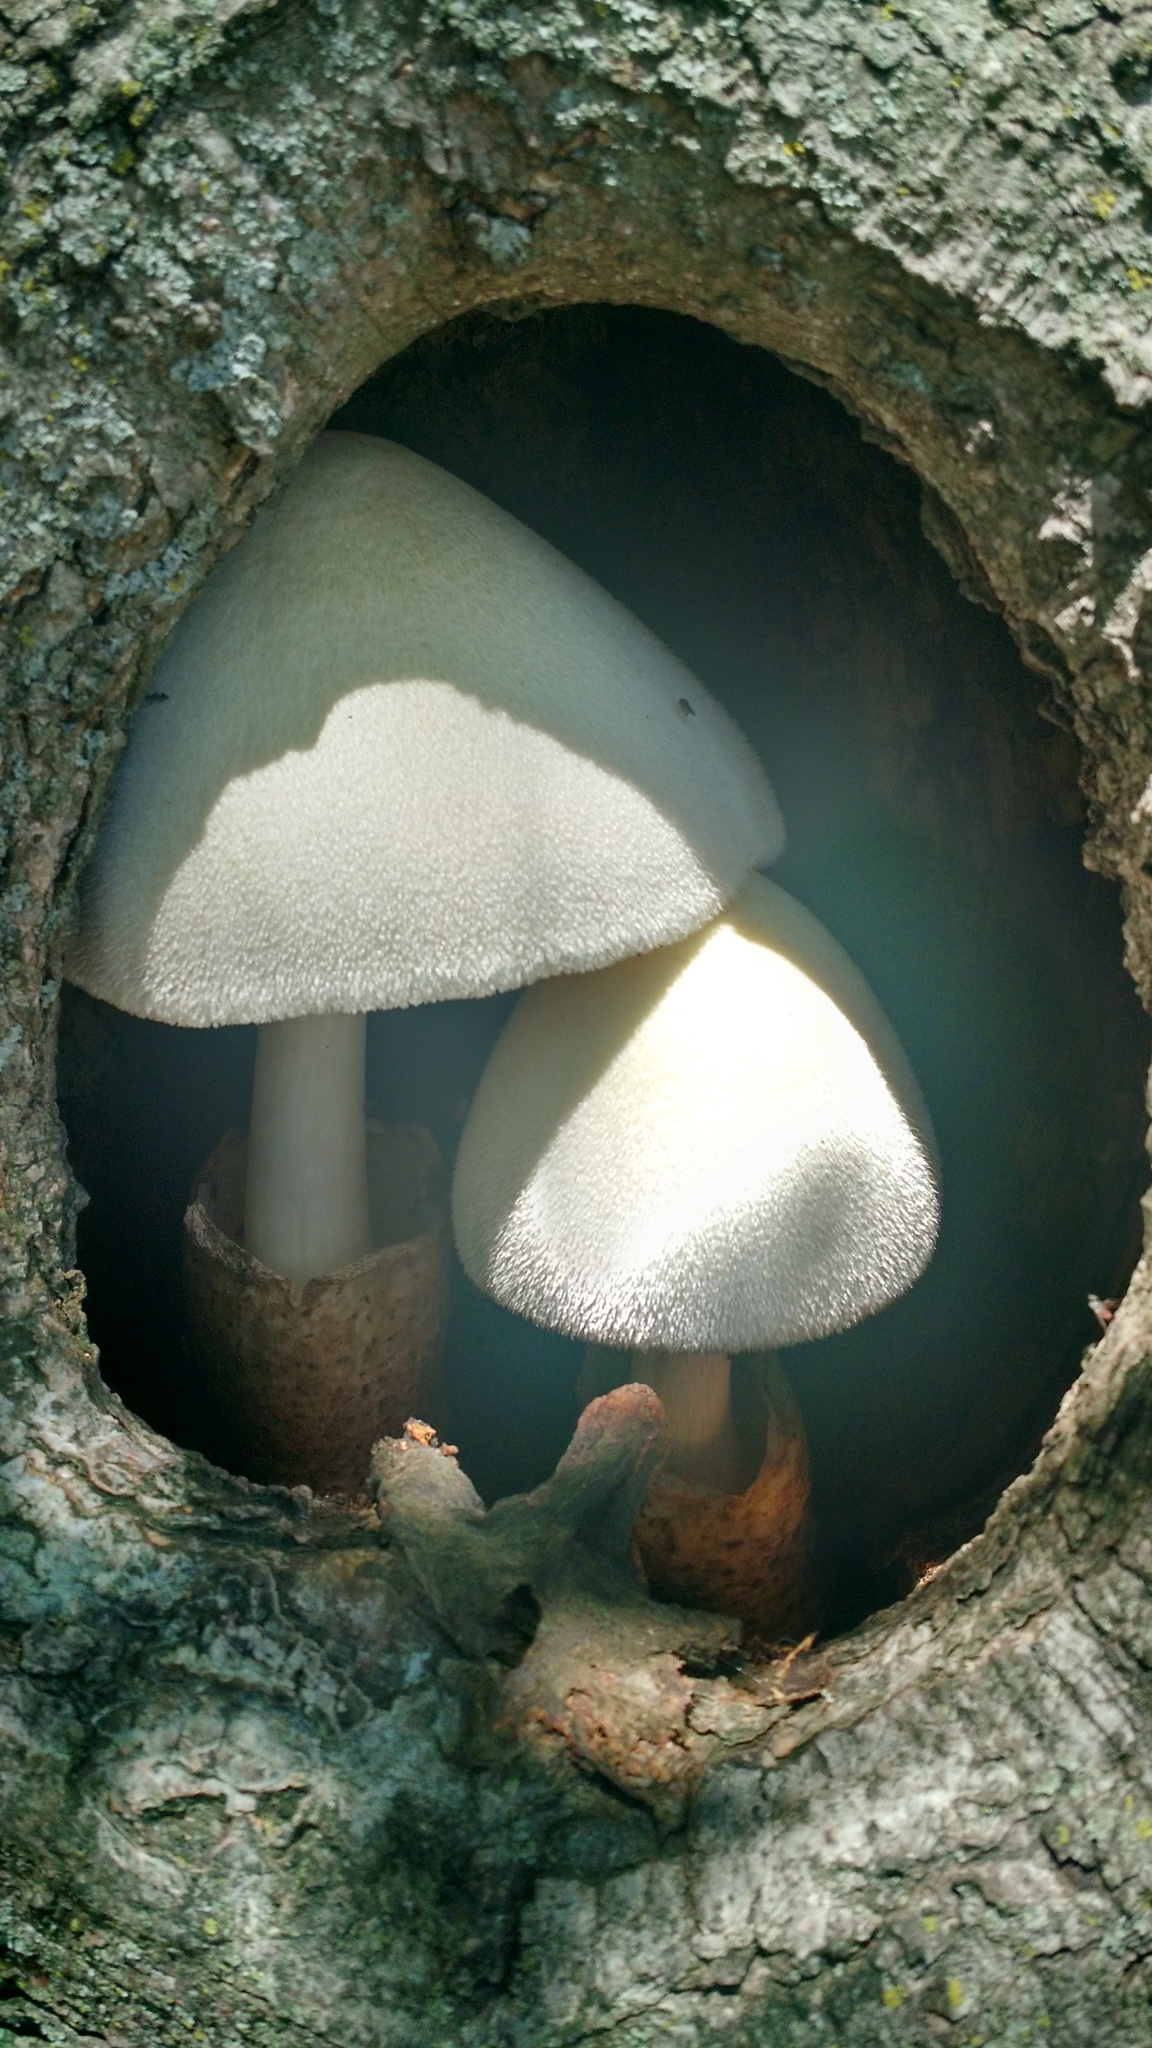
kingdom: Fungi
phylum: Basidiomycota
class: Agaricomycetes
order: Agaricales
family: Pluteaceae
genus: Volvariella
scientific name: Volvariella bombycina
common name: Silky rosegill
